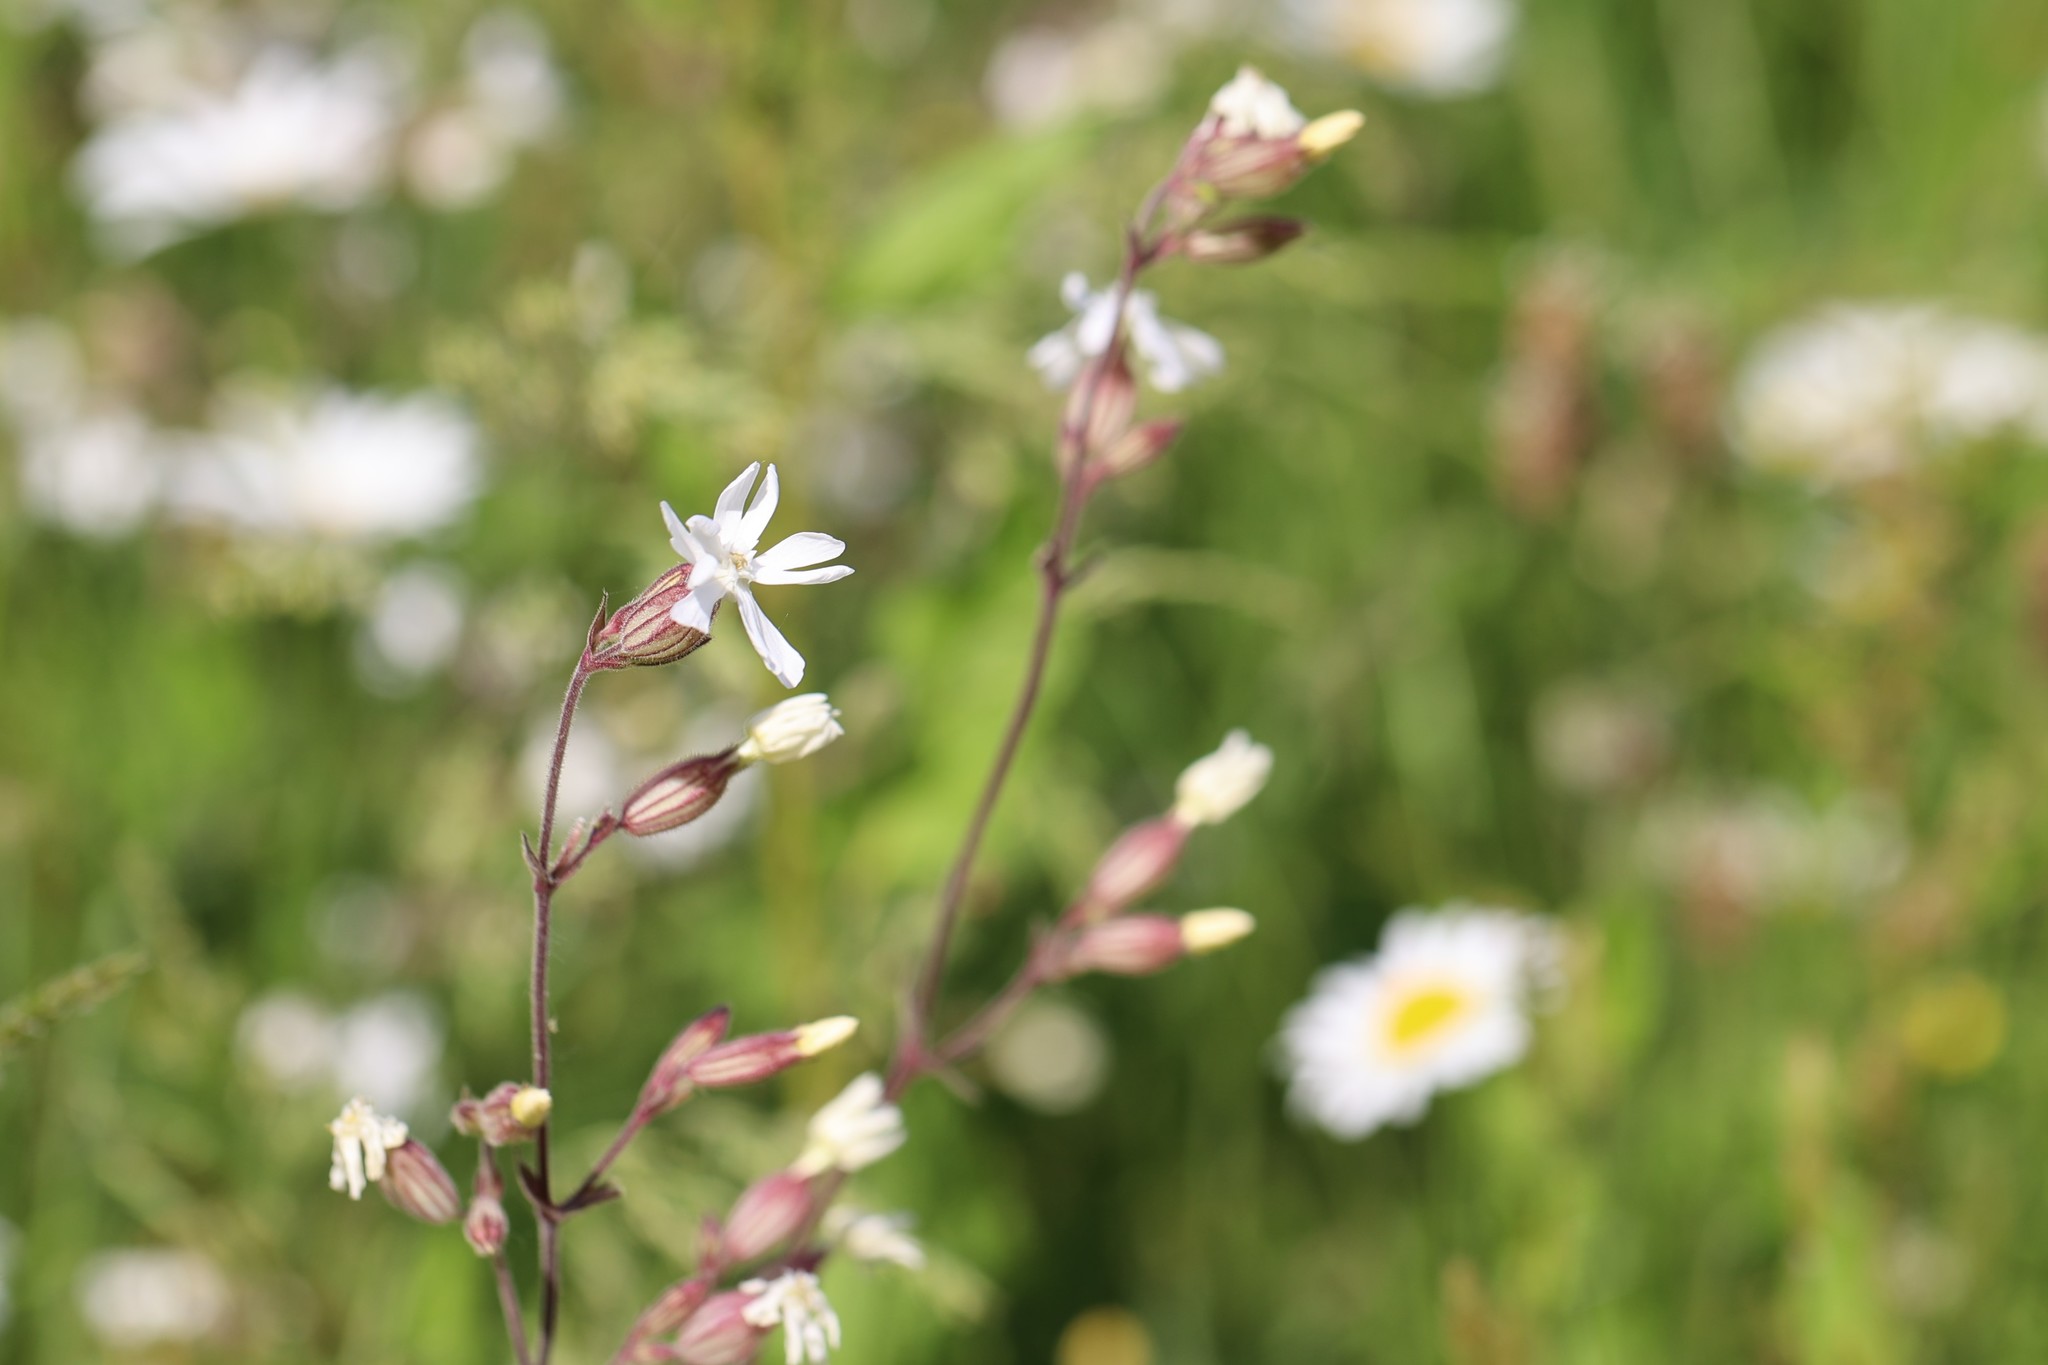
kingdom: Plantae
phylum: Tracheophyta
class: Magnoliopsida
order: Caryophyllales
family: Caryophyllaceae
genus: Silene
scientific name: Silene latifolia
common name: White campion
